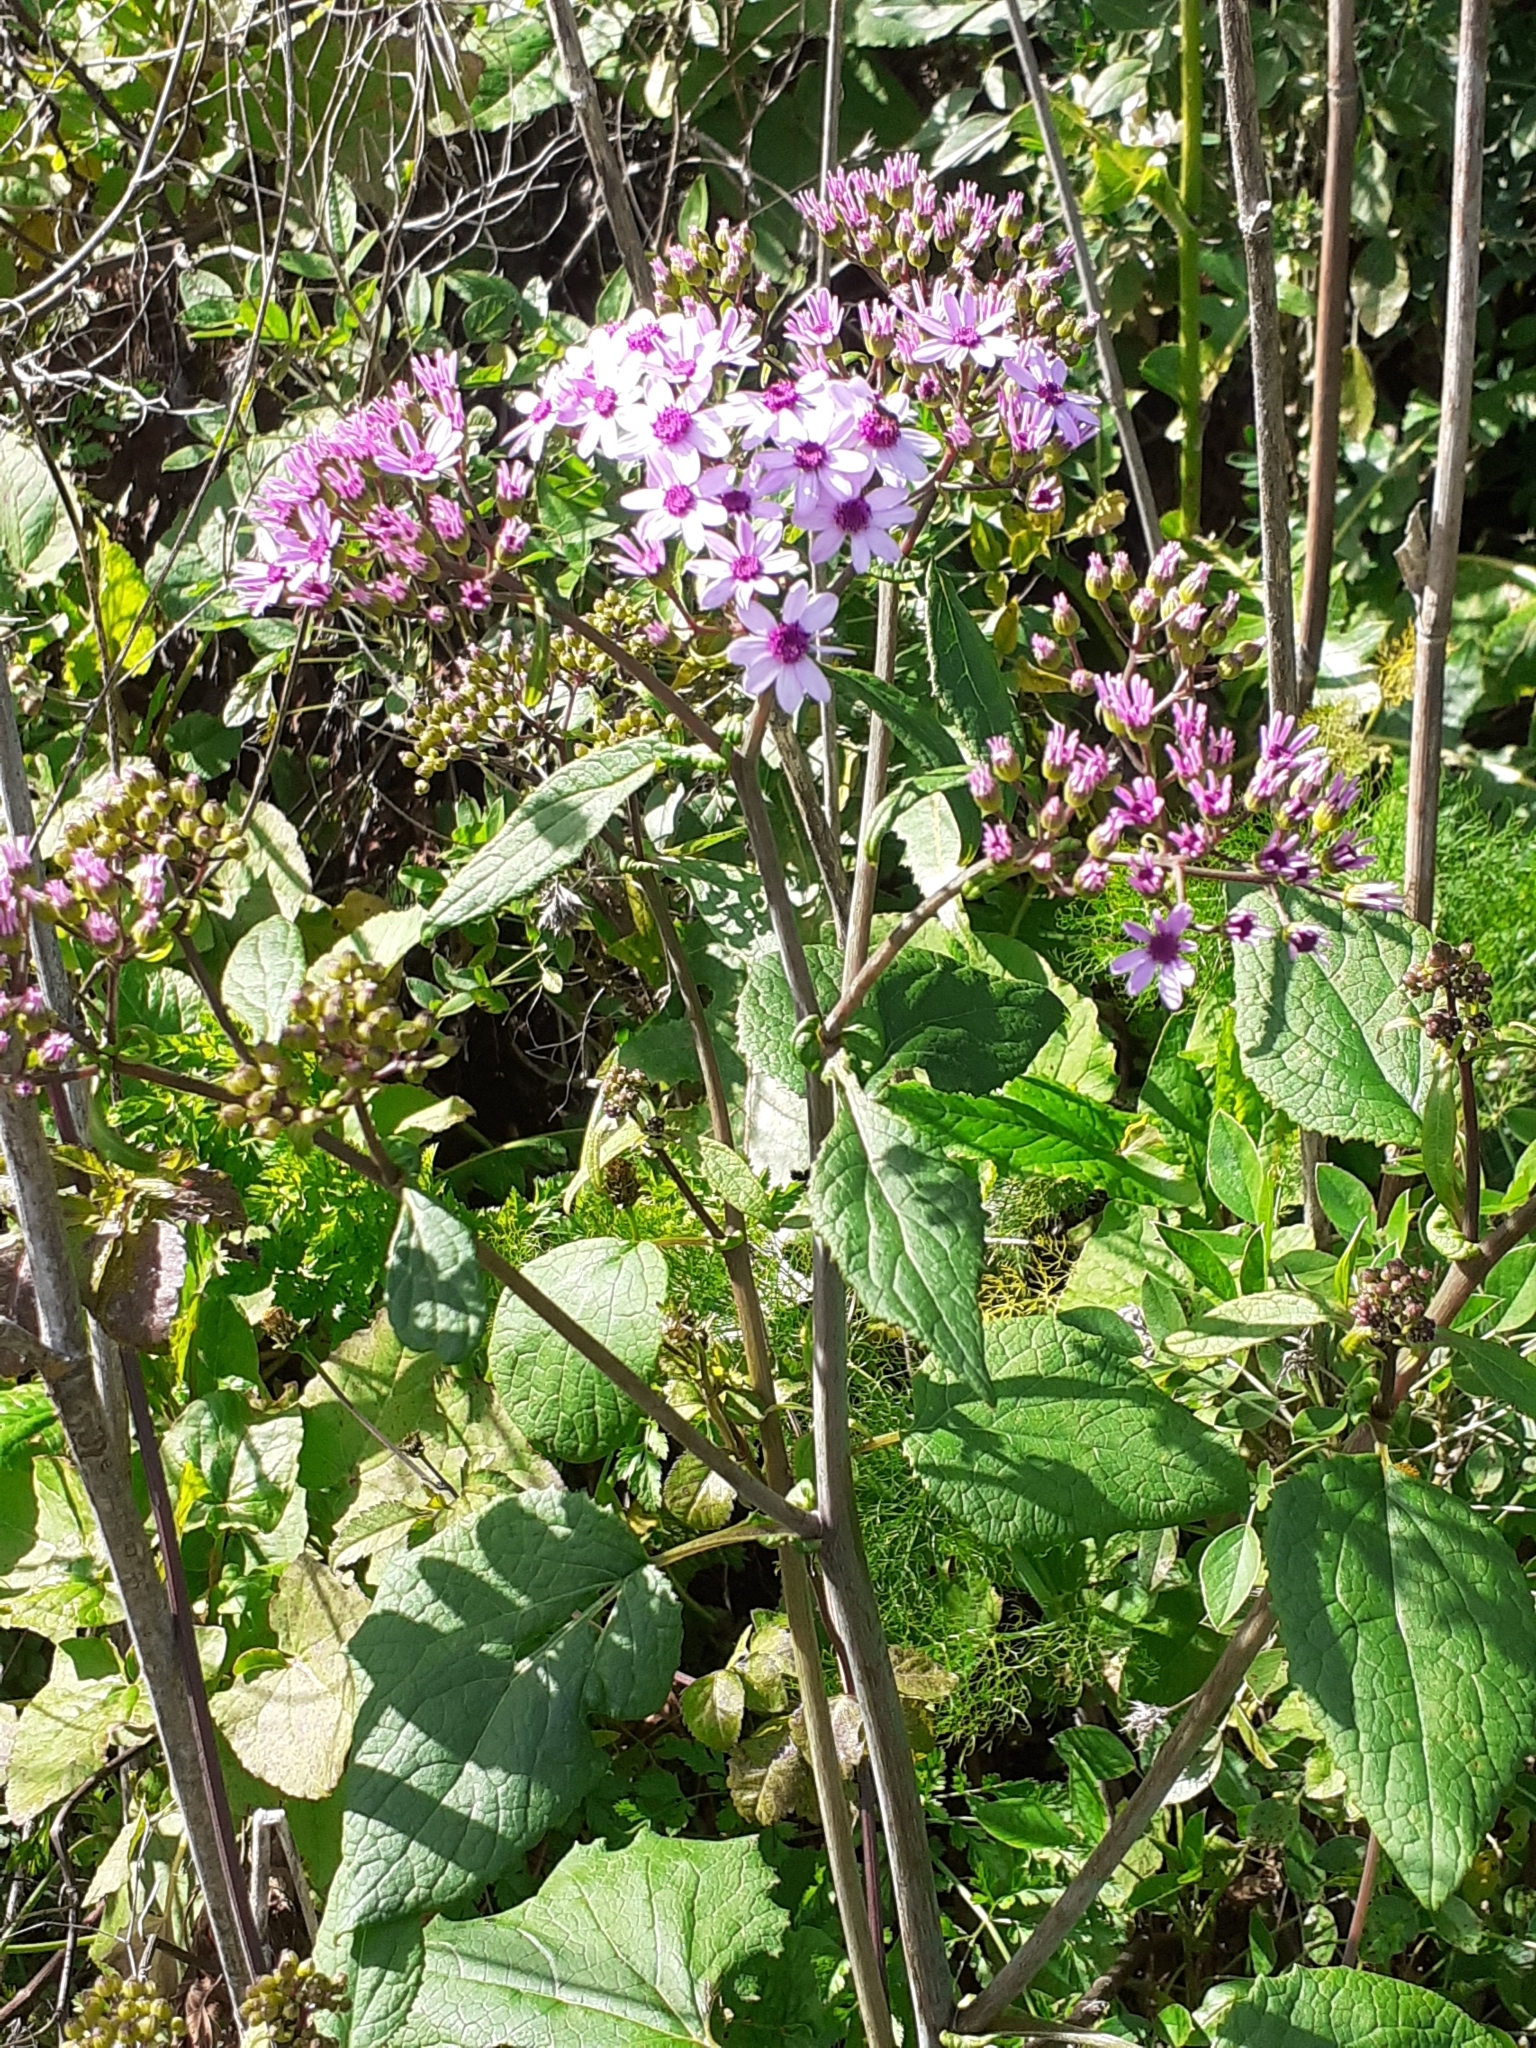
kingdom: Plantae
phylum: Tracheophyta
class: Magnoliopsida
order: Asterales
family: Asteraceae
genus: Pericallis
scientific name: Pericallis papyracea
